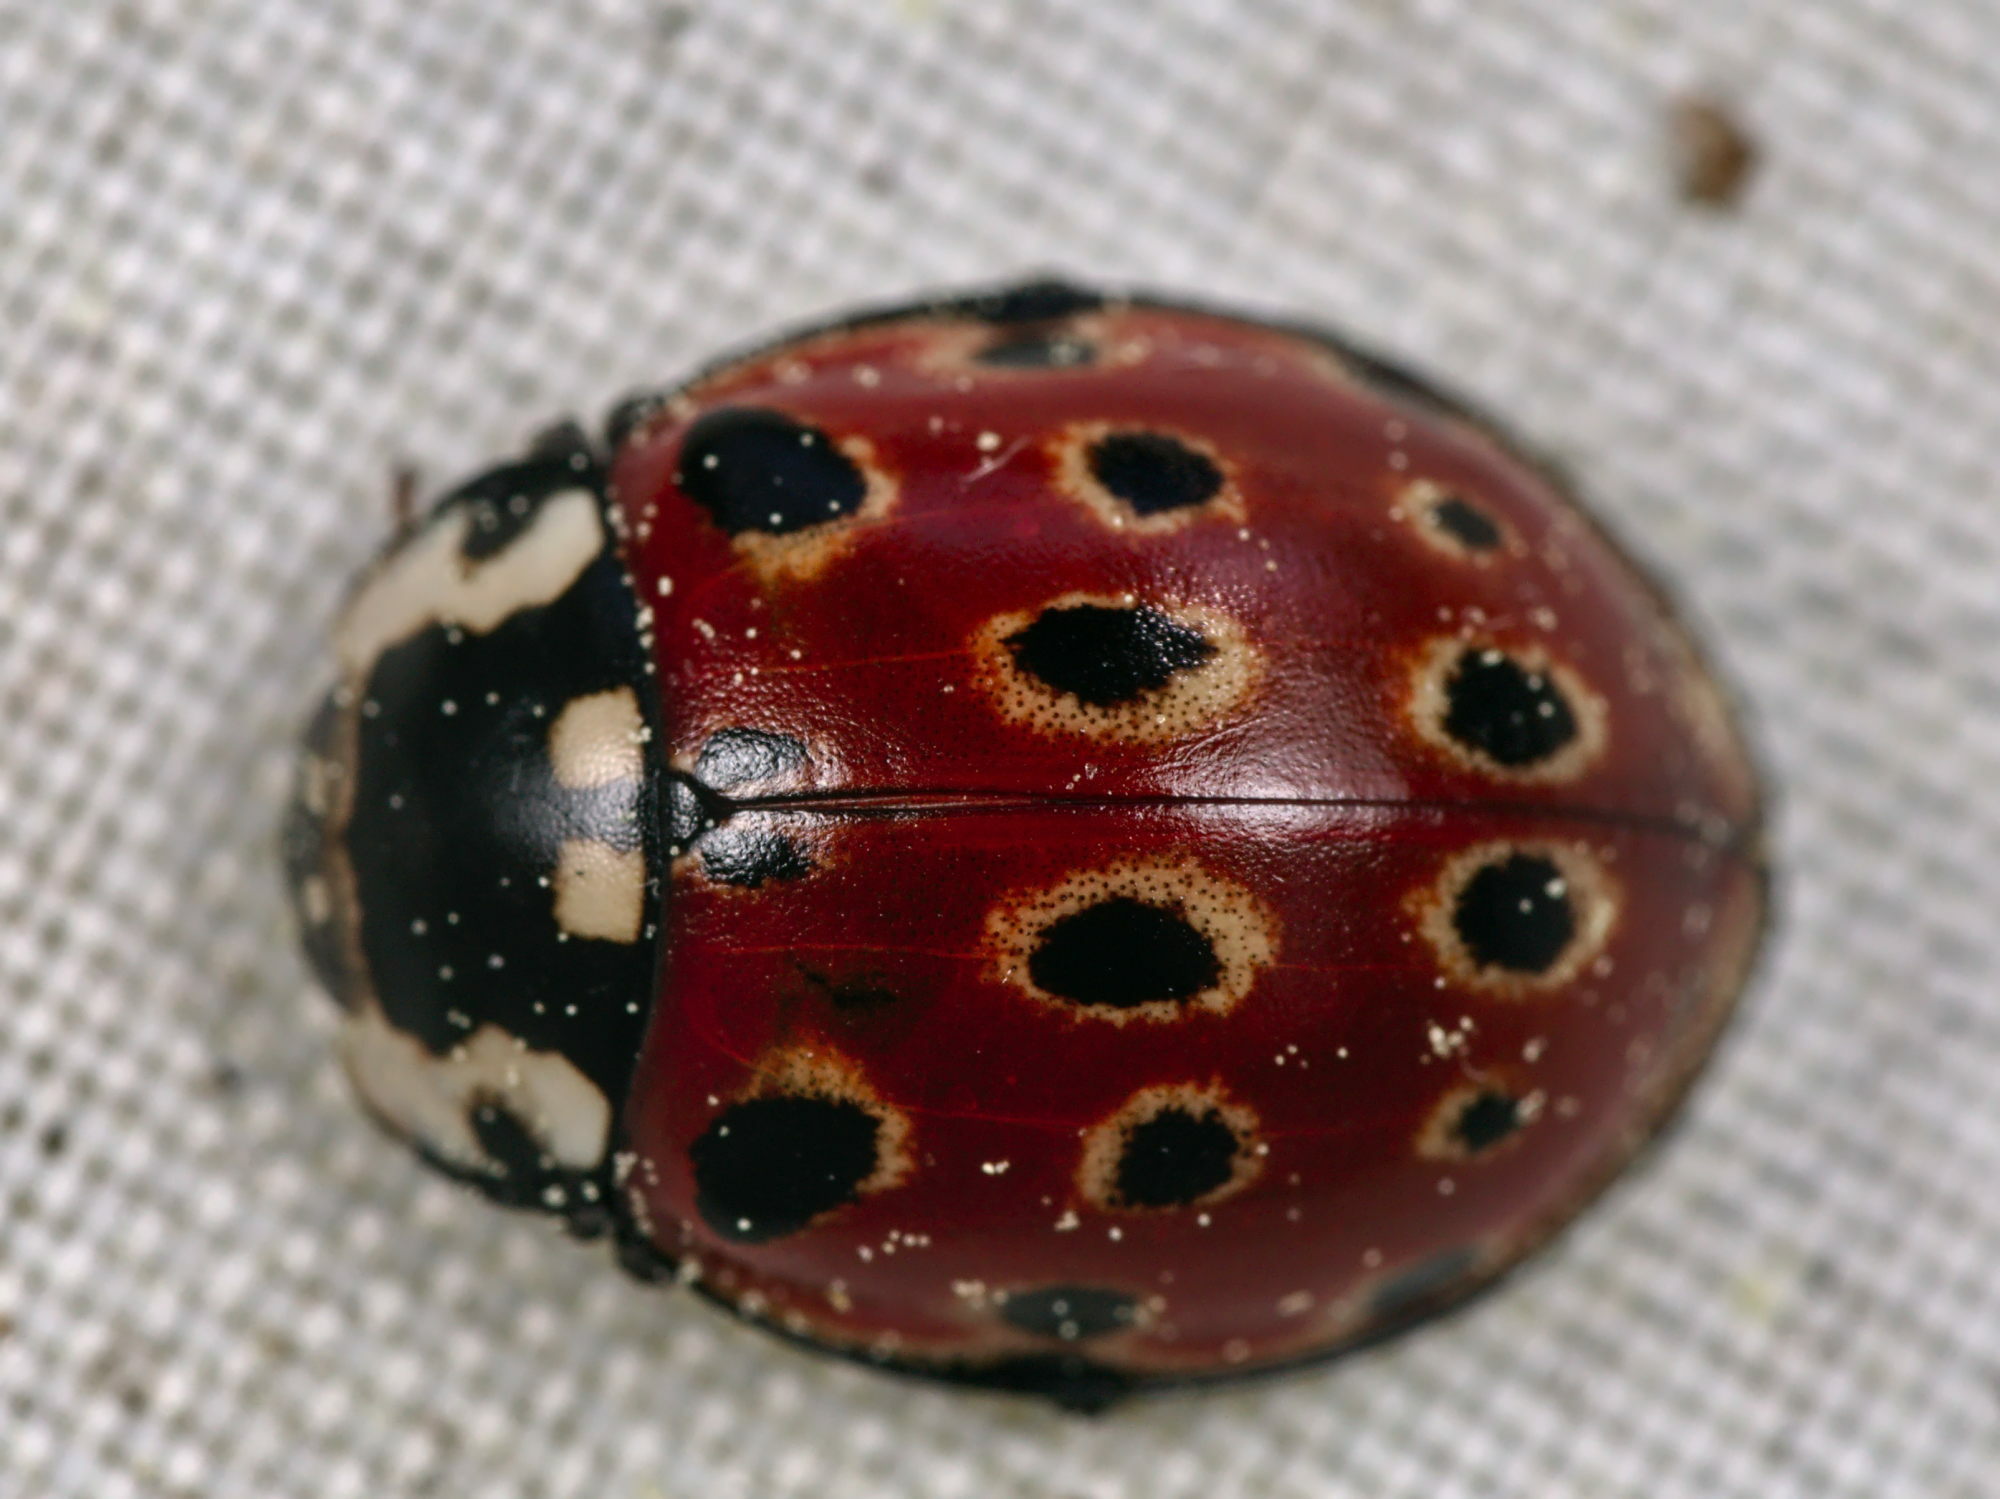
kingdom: Animalia
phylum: Arthropoda
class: Insecta
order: Coleoptera
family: Coccinellidae
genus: Anatis
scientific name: Anatis ocellata
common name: Eyed ladybird
